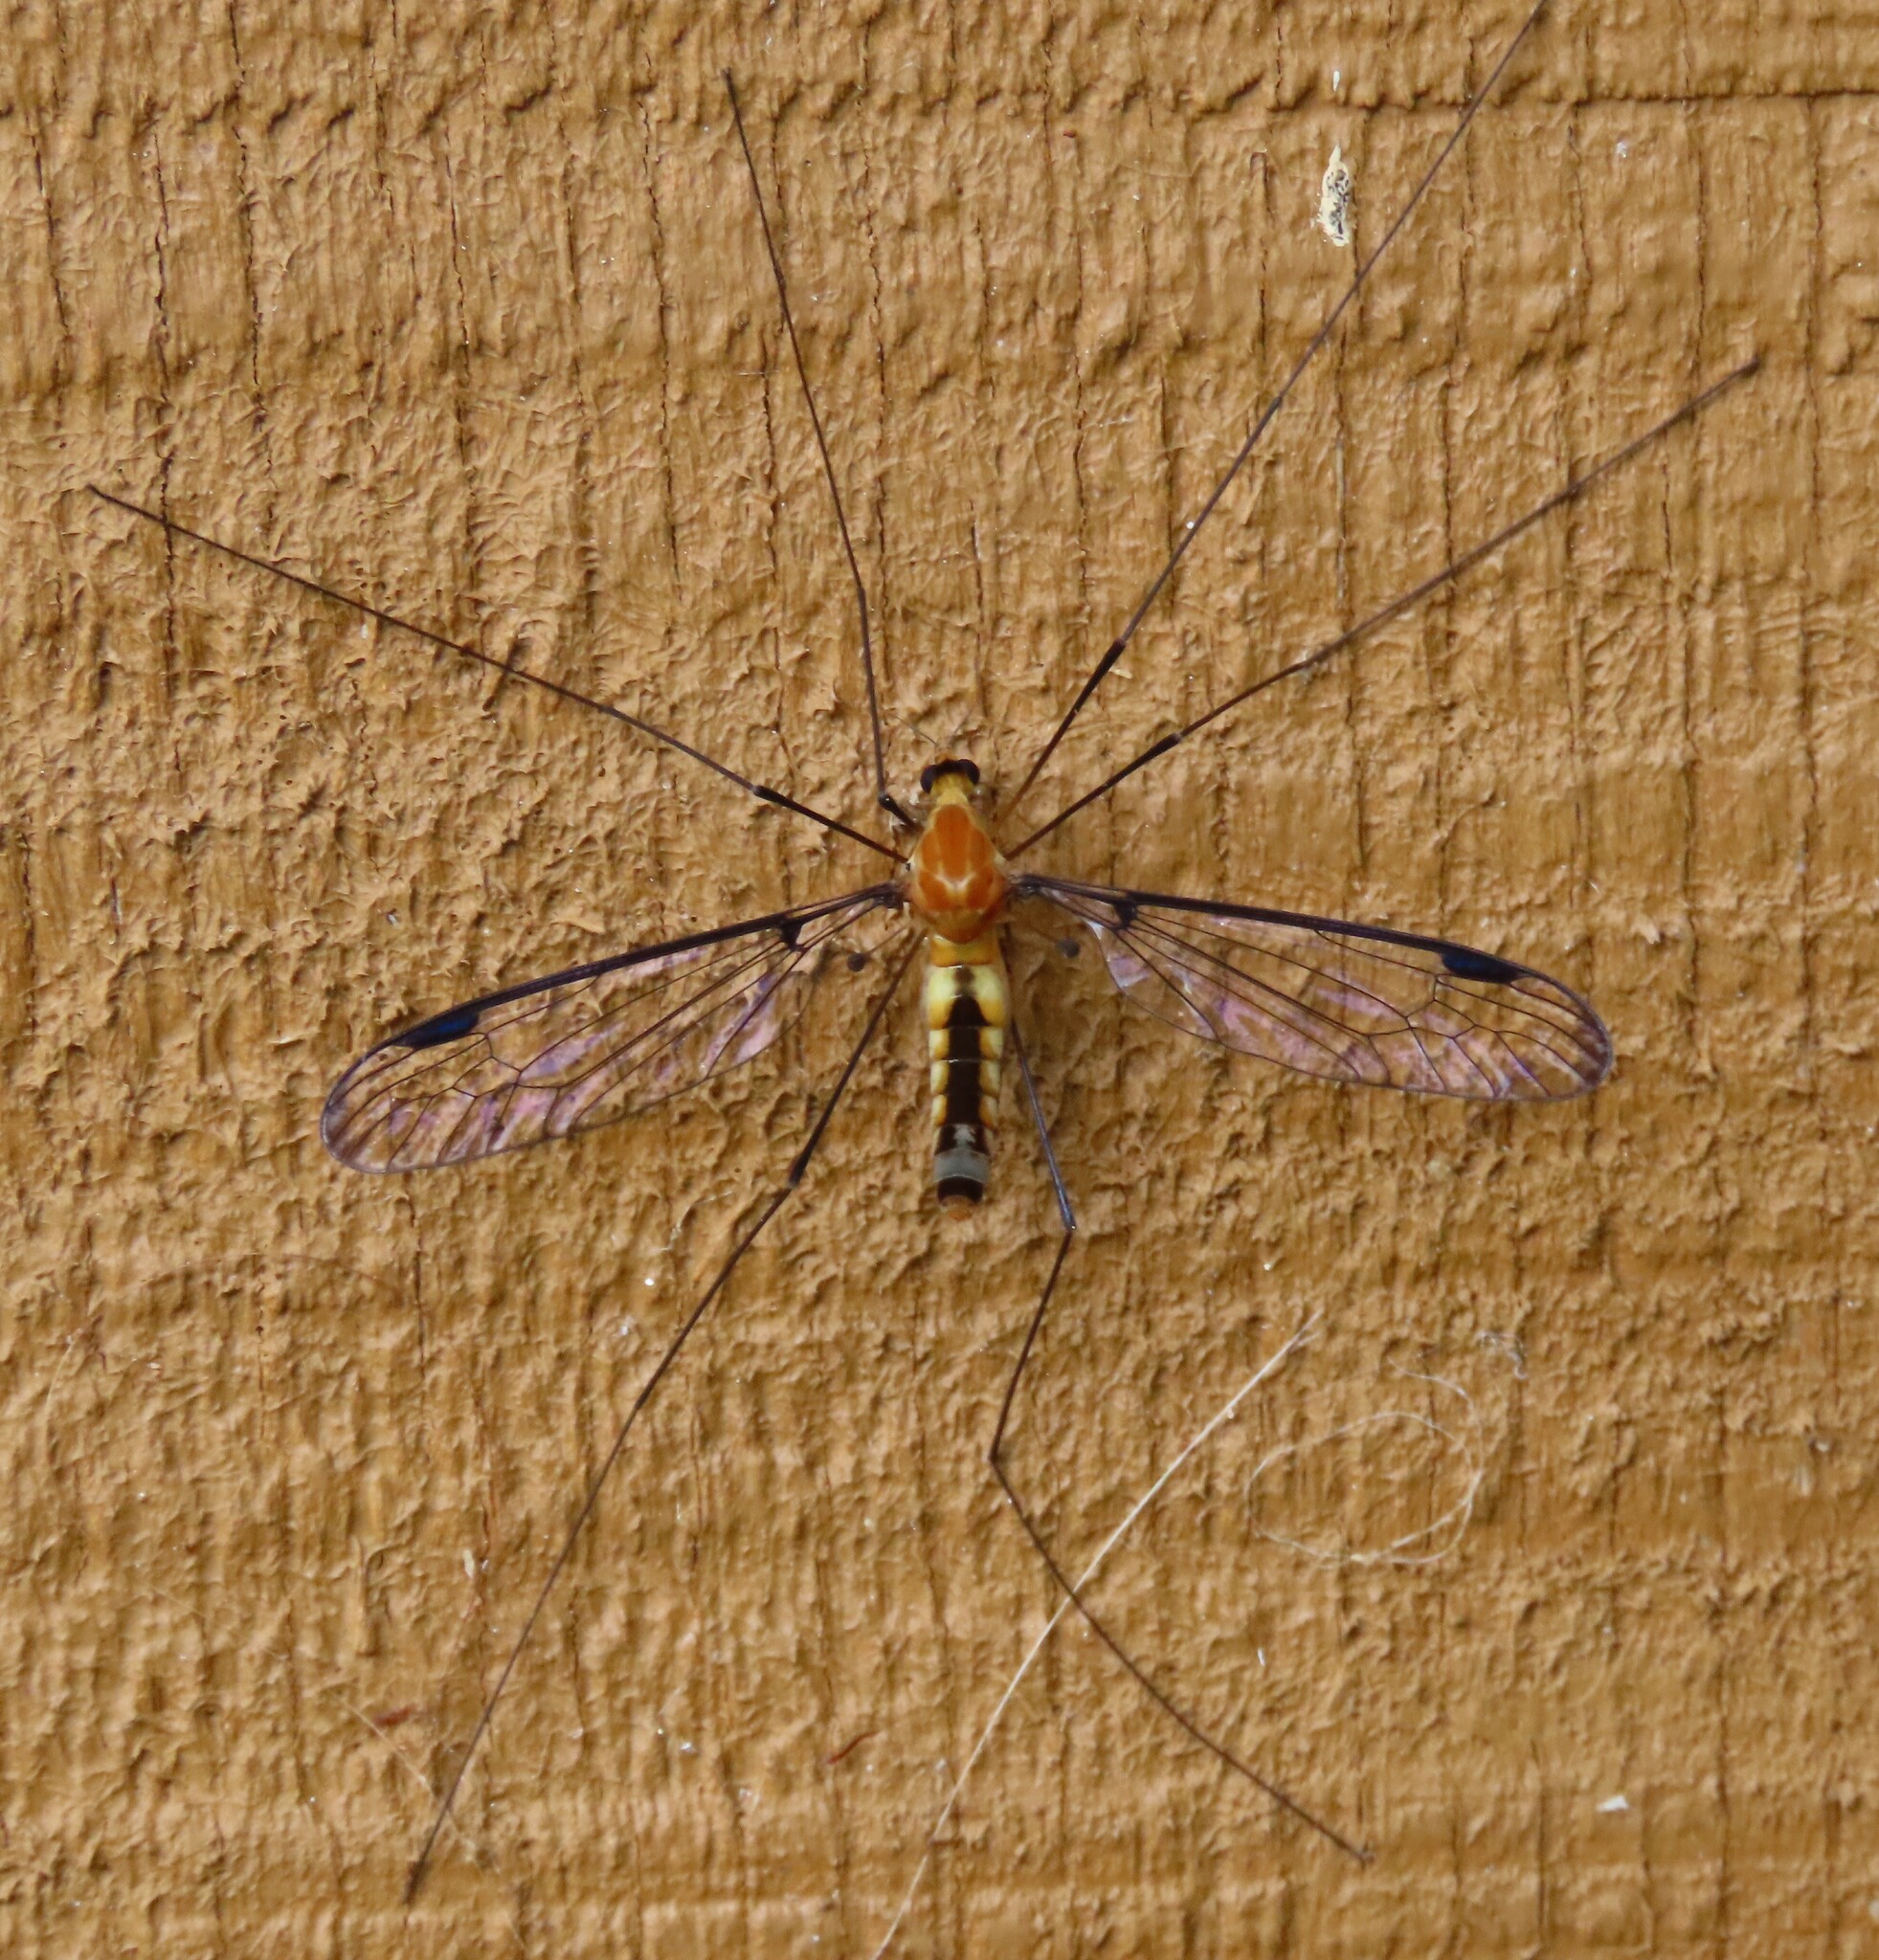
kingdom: Animalia
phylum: Arthropoda
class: Insecta
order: Diptera
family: Tipulidae
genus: Aurotipula
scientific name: Aurotipula
